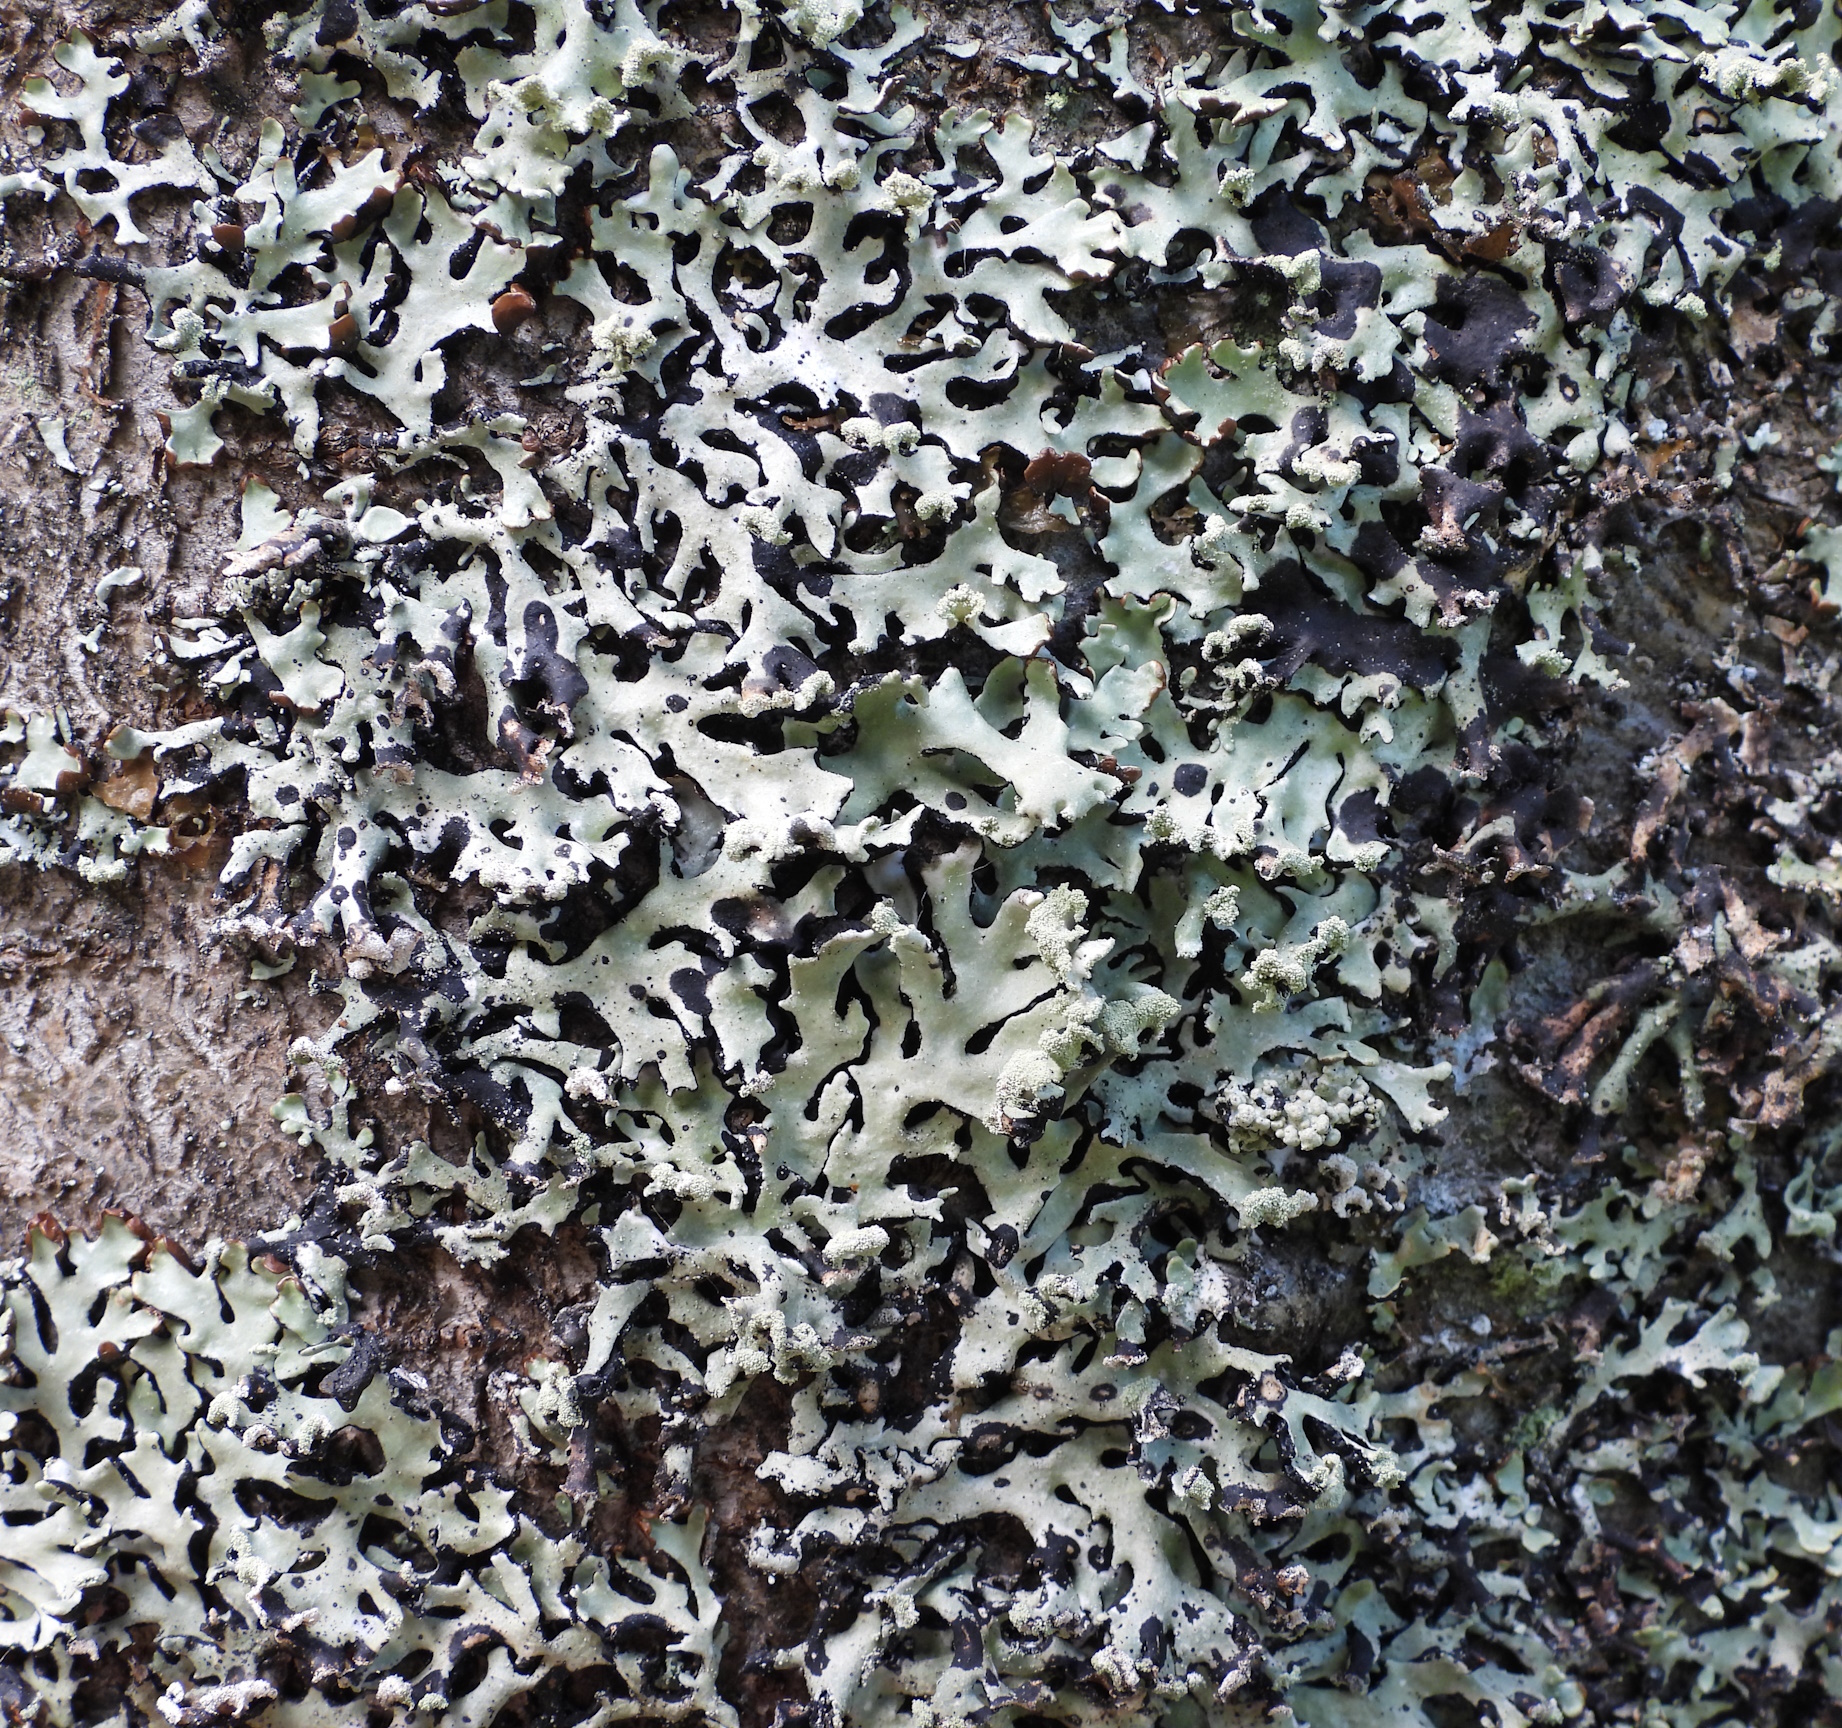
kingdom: Fungi
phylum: Ascomycota
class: Lecanoromycetes
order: Lecanorales
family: Parmeliaceae
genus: Hypogymnia
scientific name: Hypogymnia physodes
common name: Dark crottle
